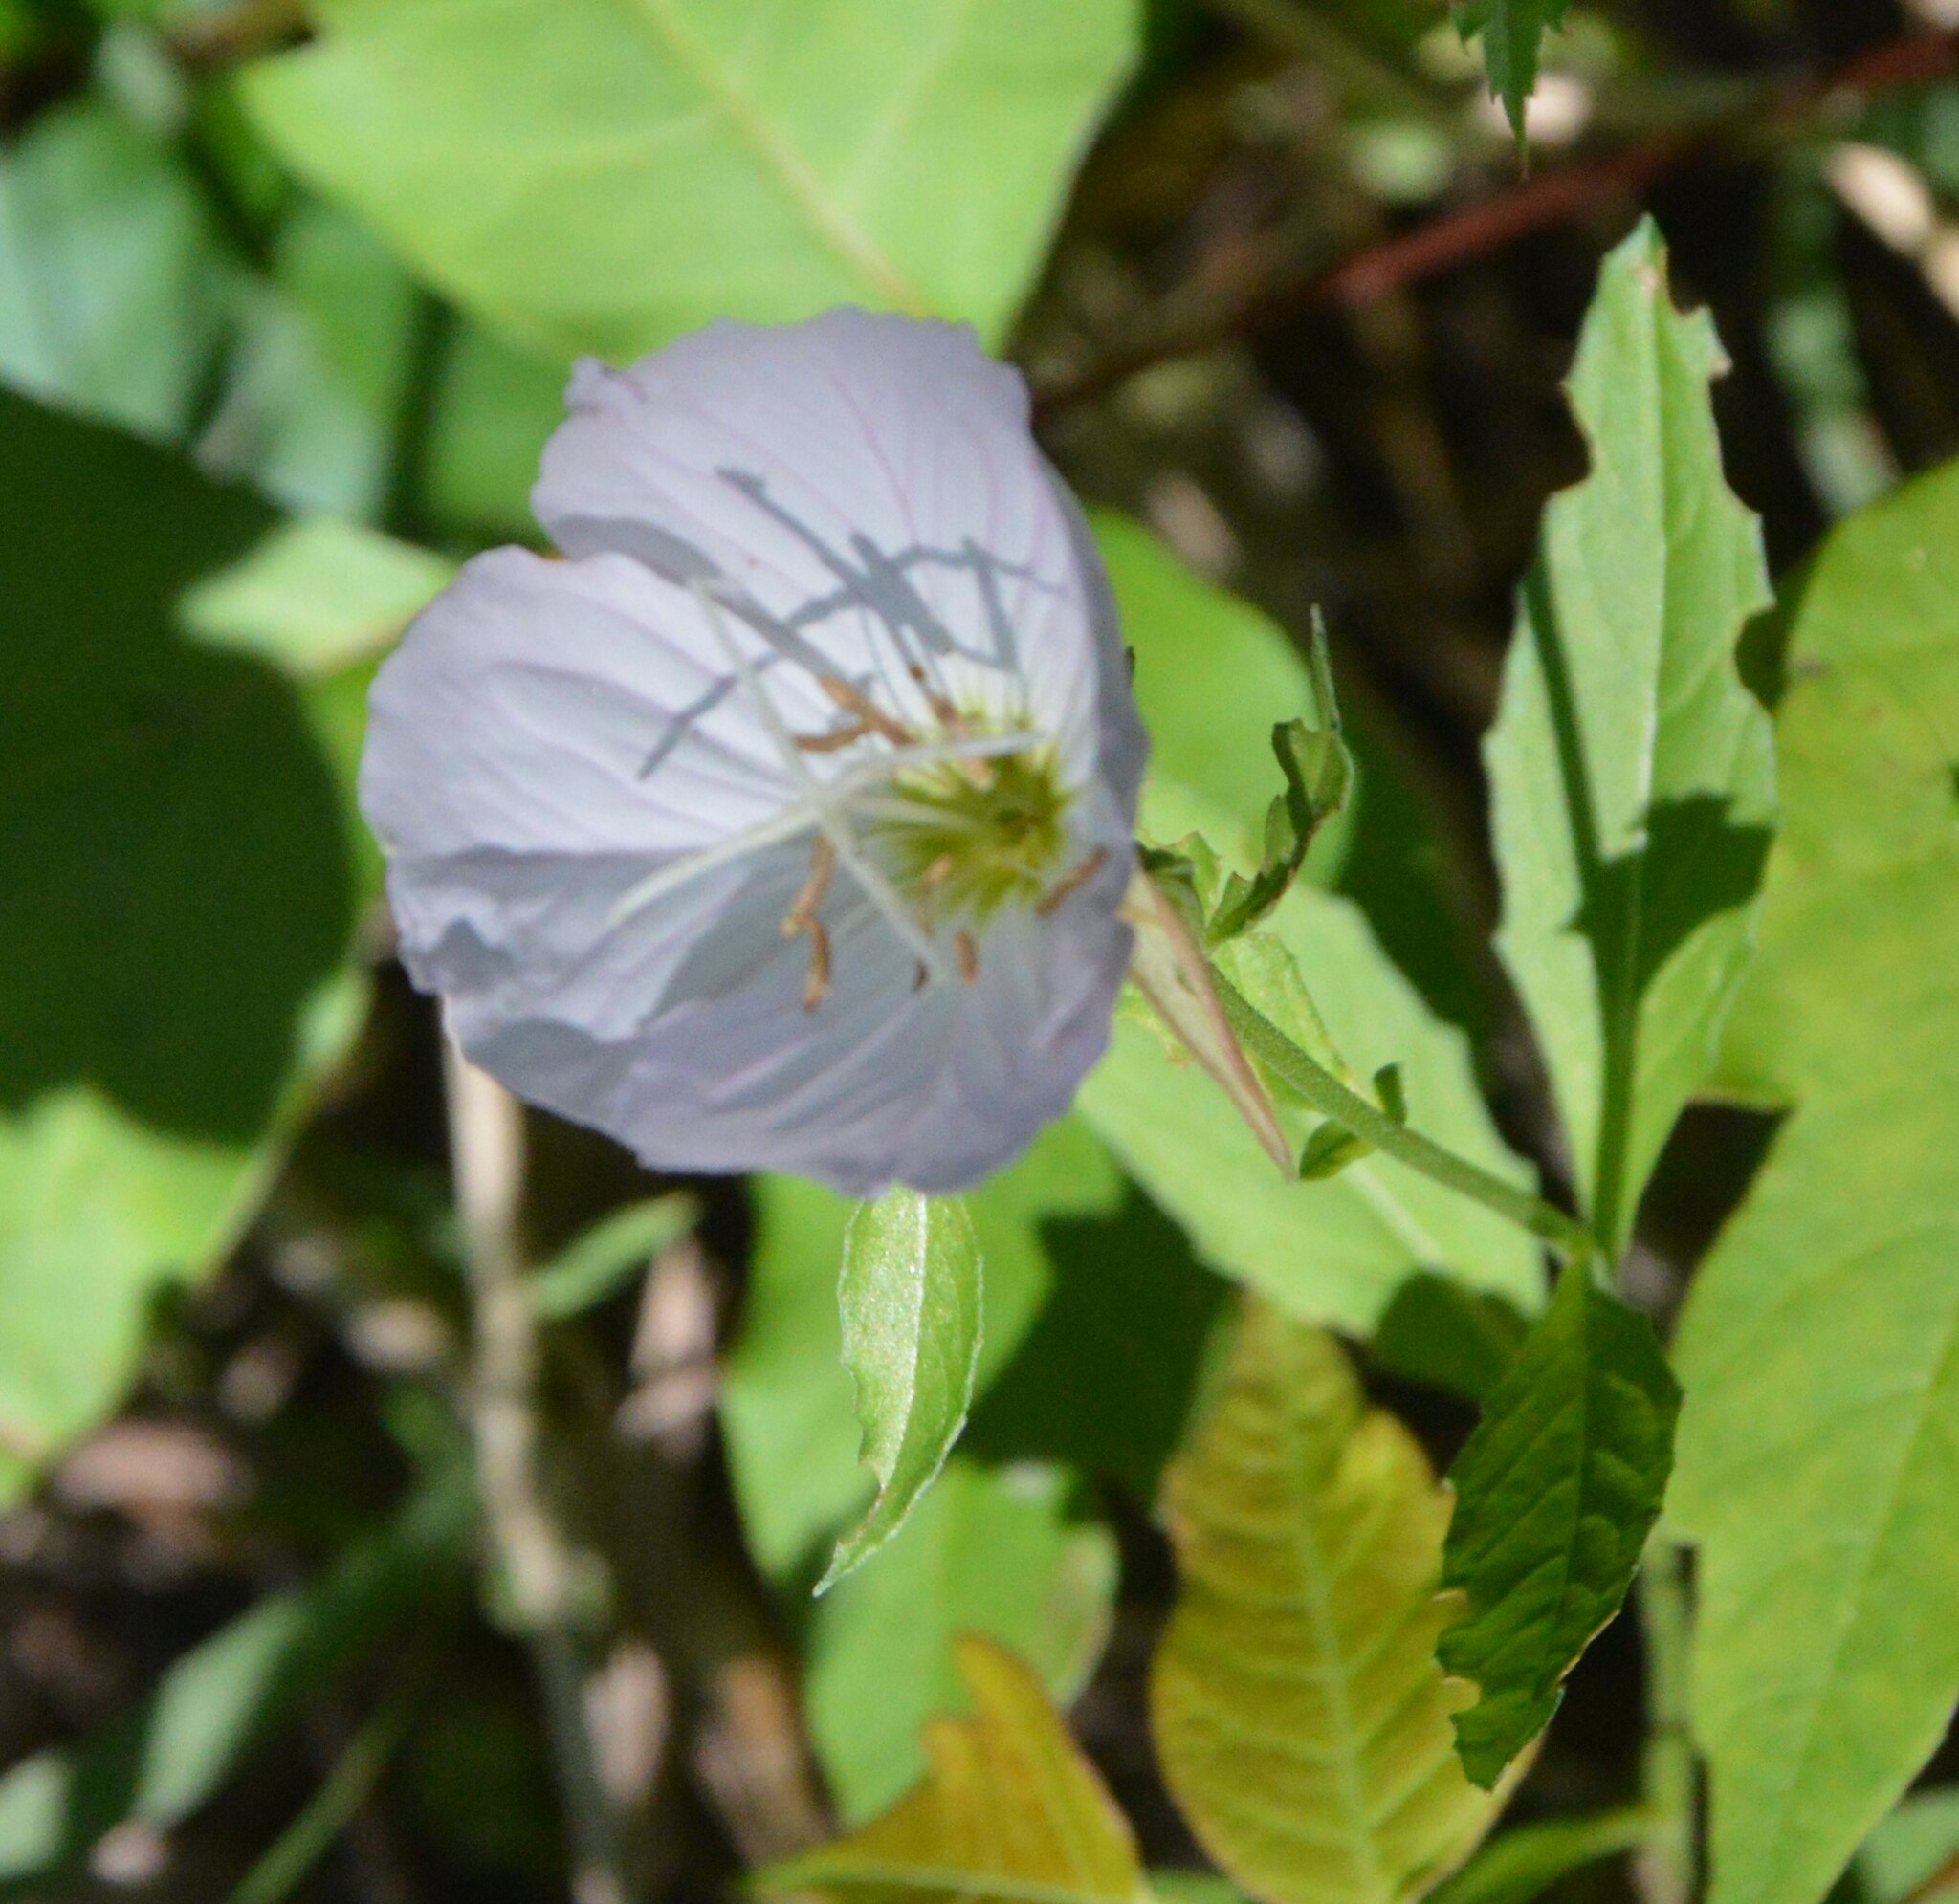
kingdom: Plantae
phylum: Tracheophyta
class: Magnoliopsida
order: Myrtales
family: Onagraceae
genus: Oenothera
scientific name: Oenothera speciosa
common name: White evening-primrose
